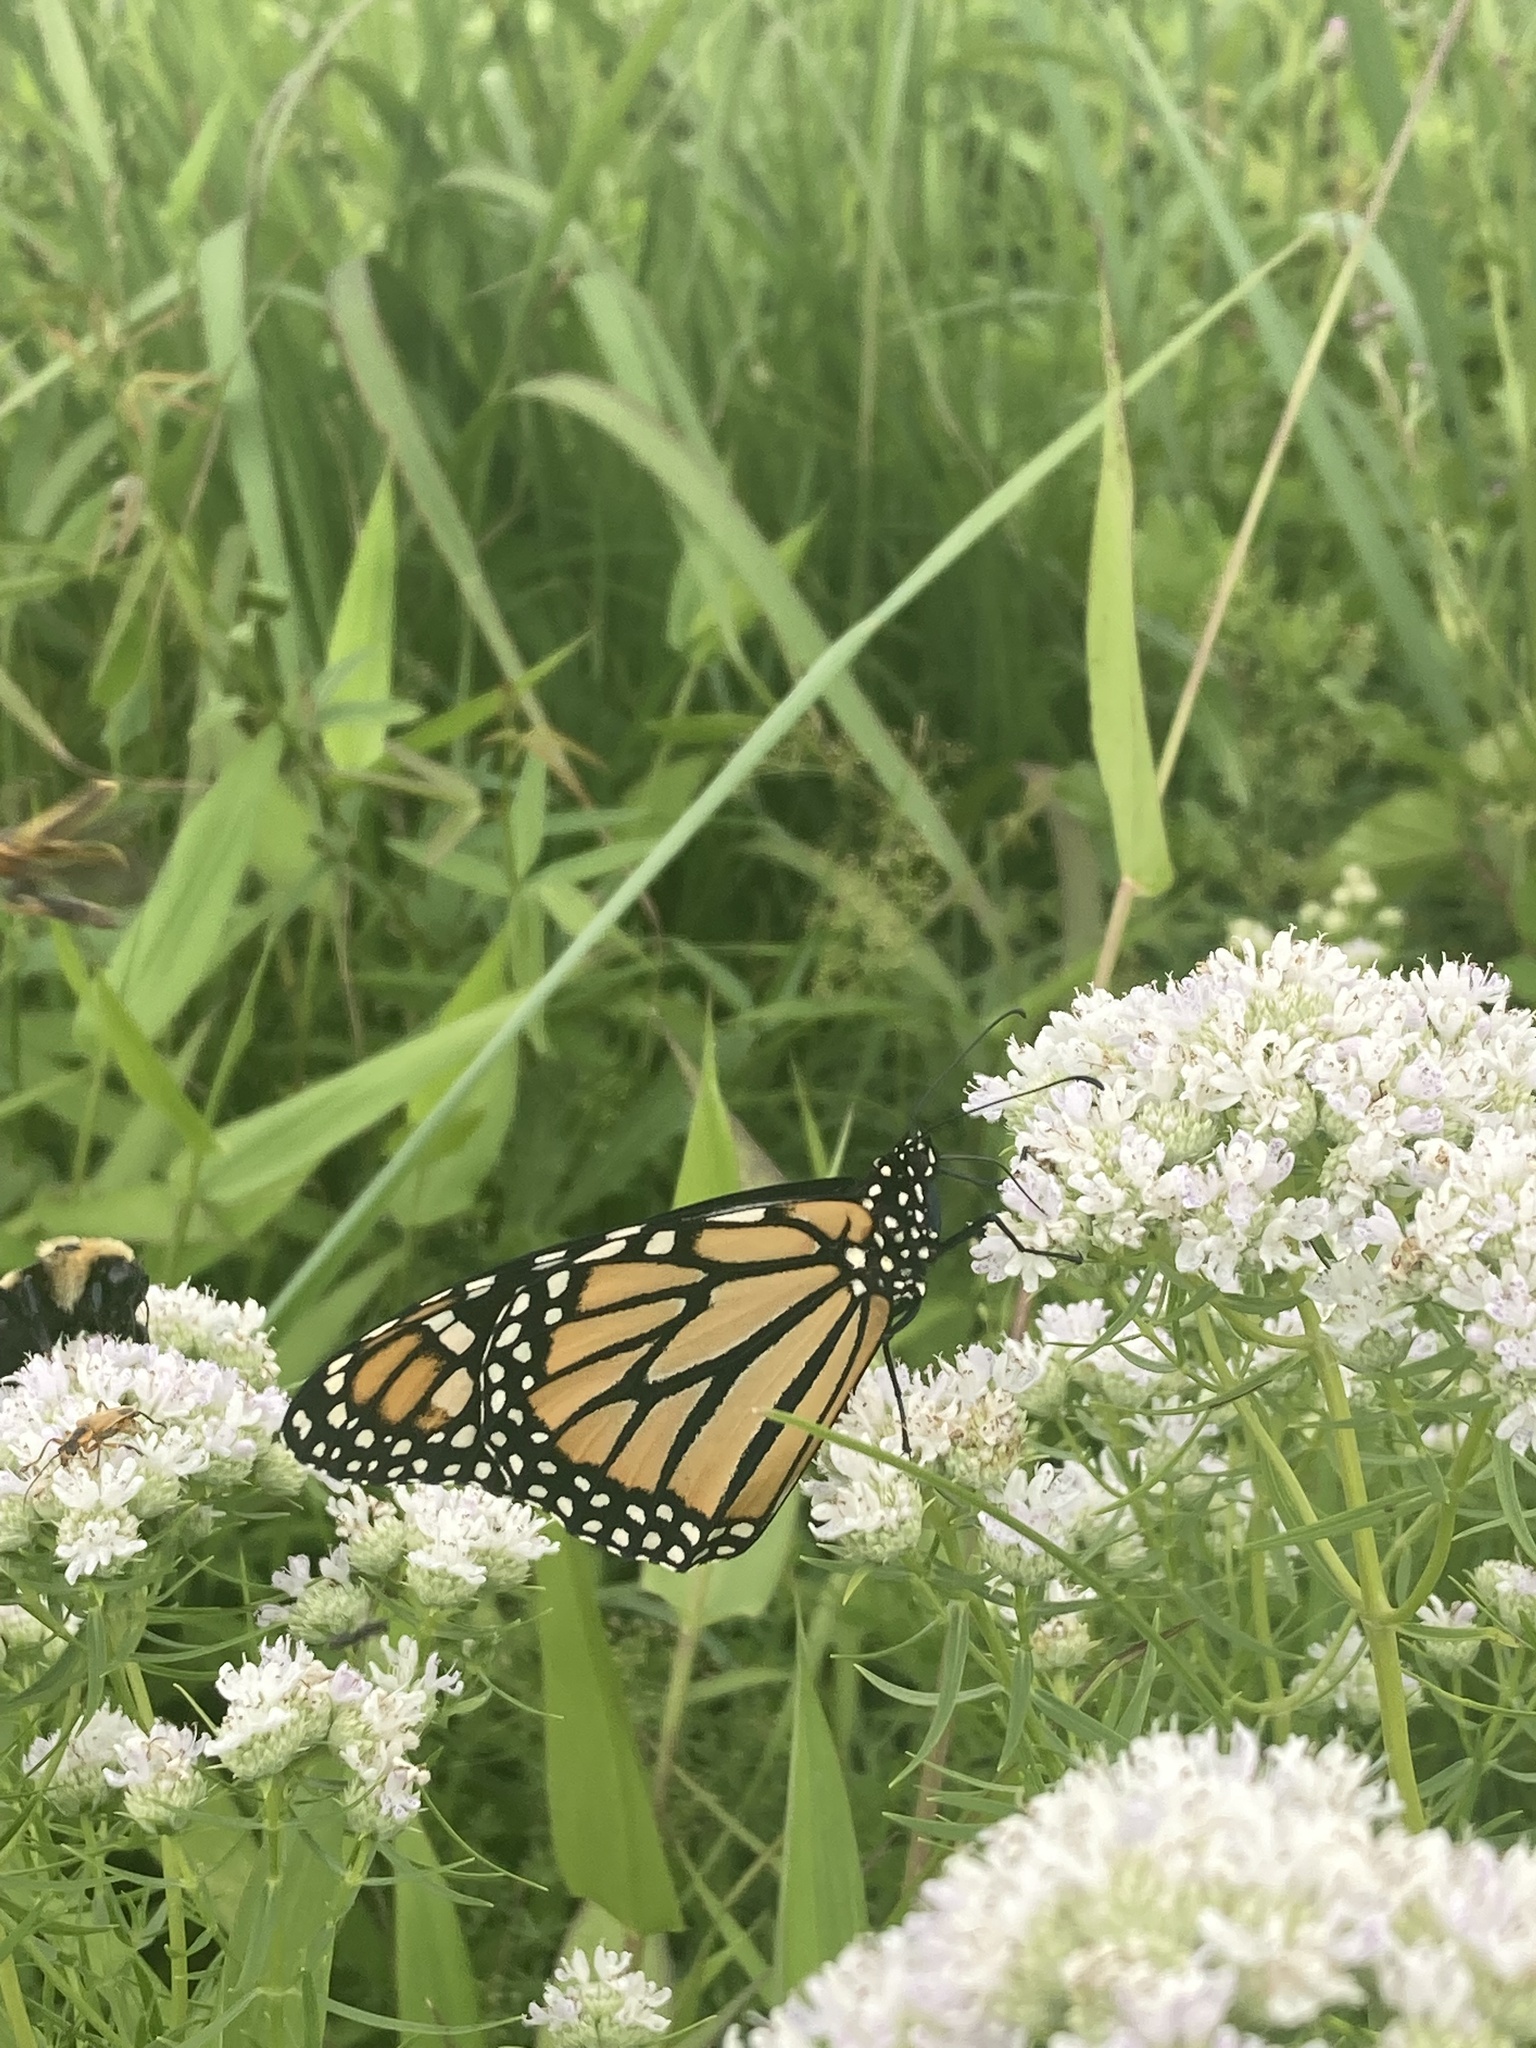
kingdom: Animalia
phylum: Arthropoda
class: Insecta
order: Lepidoptera
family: Nymphalidae
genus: Danaus
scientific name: Danaus plexippus
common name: Monarch
